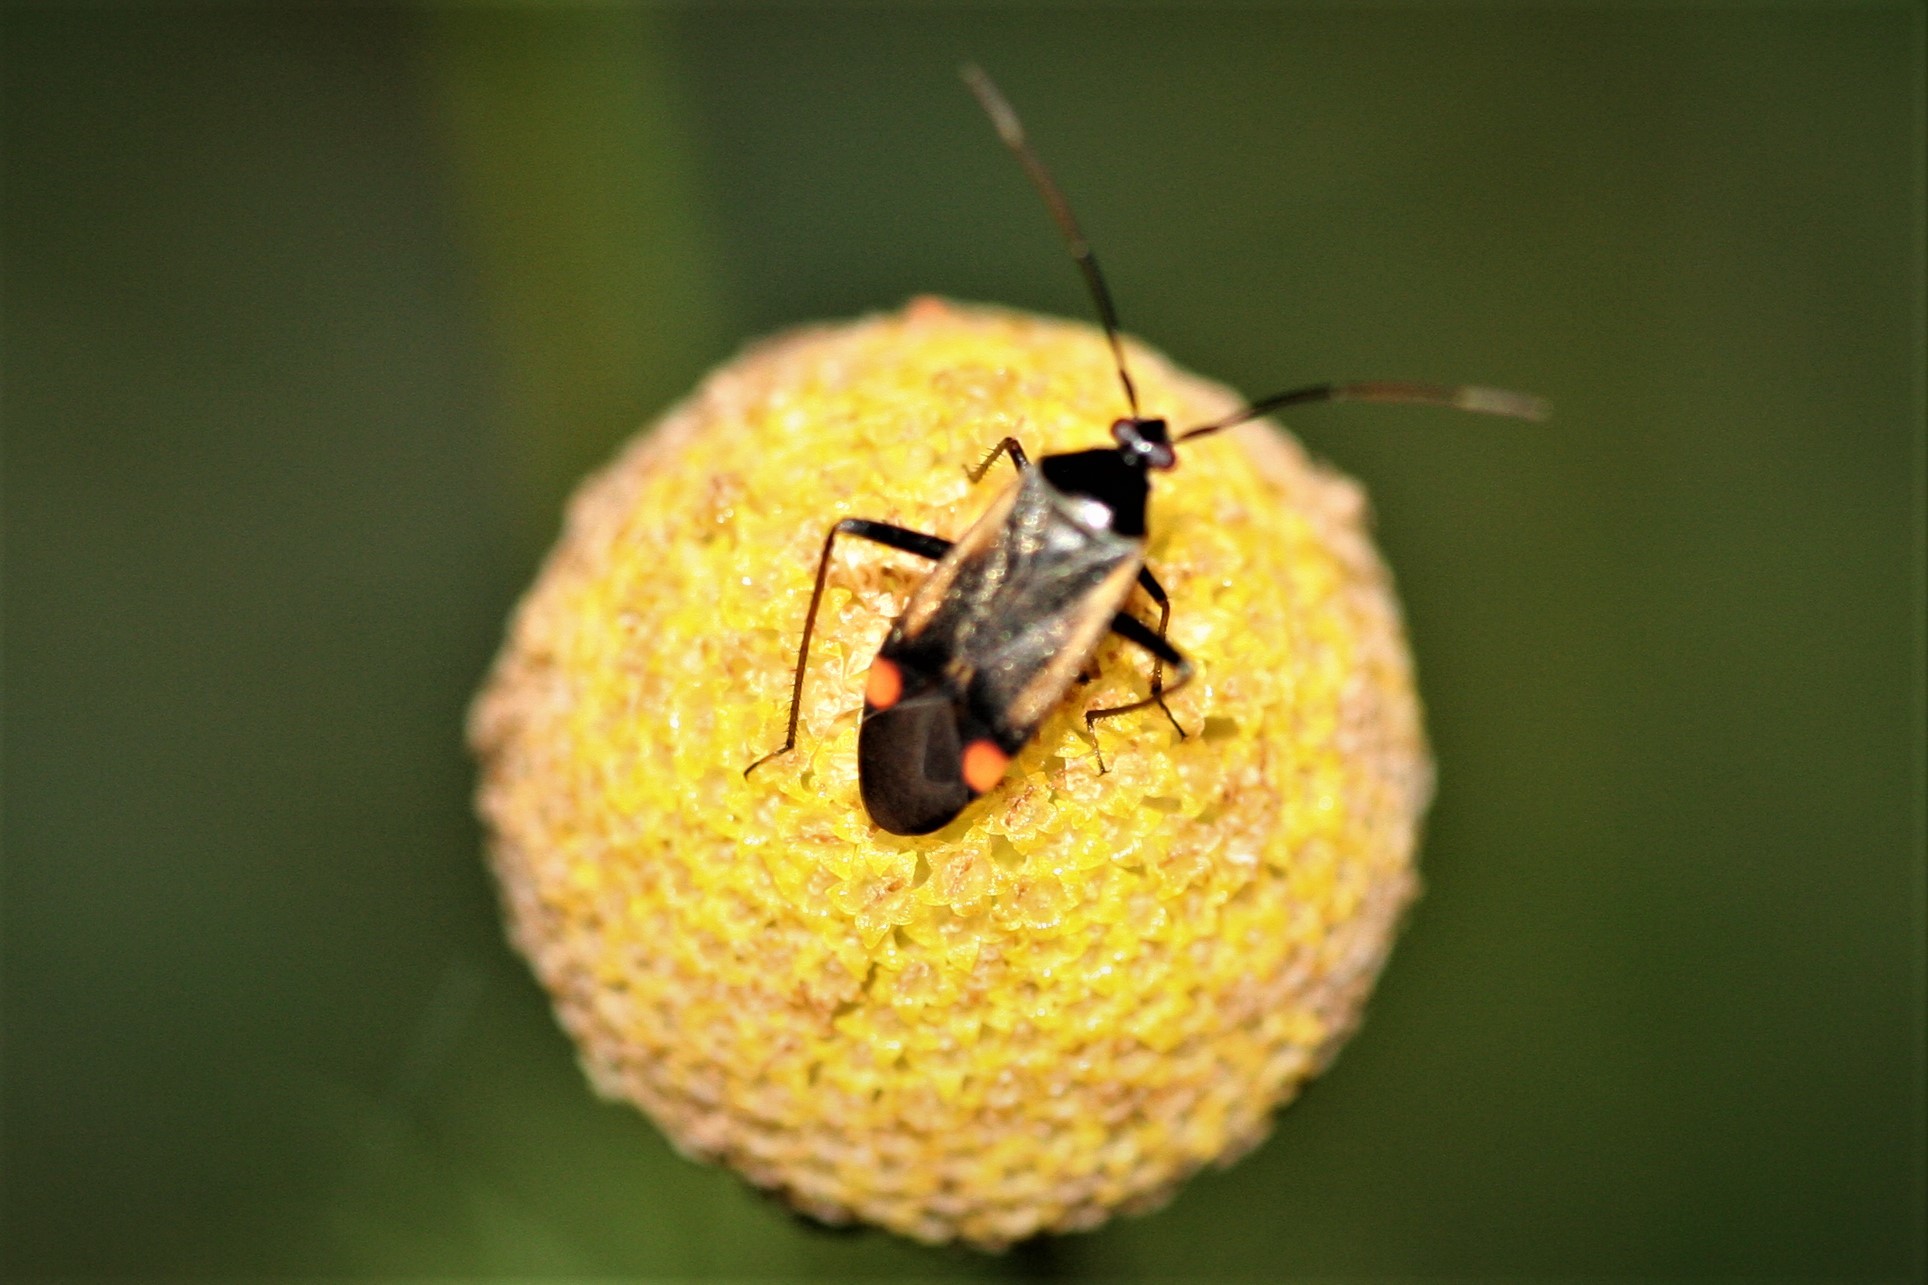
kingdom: Animalia
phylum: Arthropoda
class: Insecta
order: Hemiptera
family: Miridae
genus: Adelphocoris
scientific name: Adelphocoris seticornis
